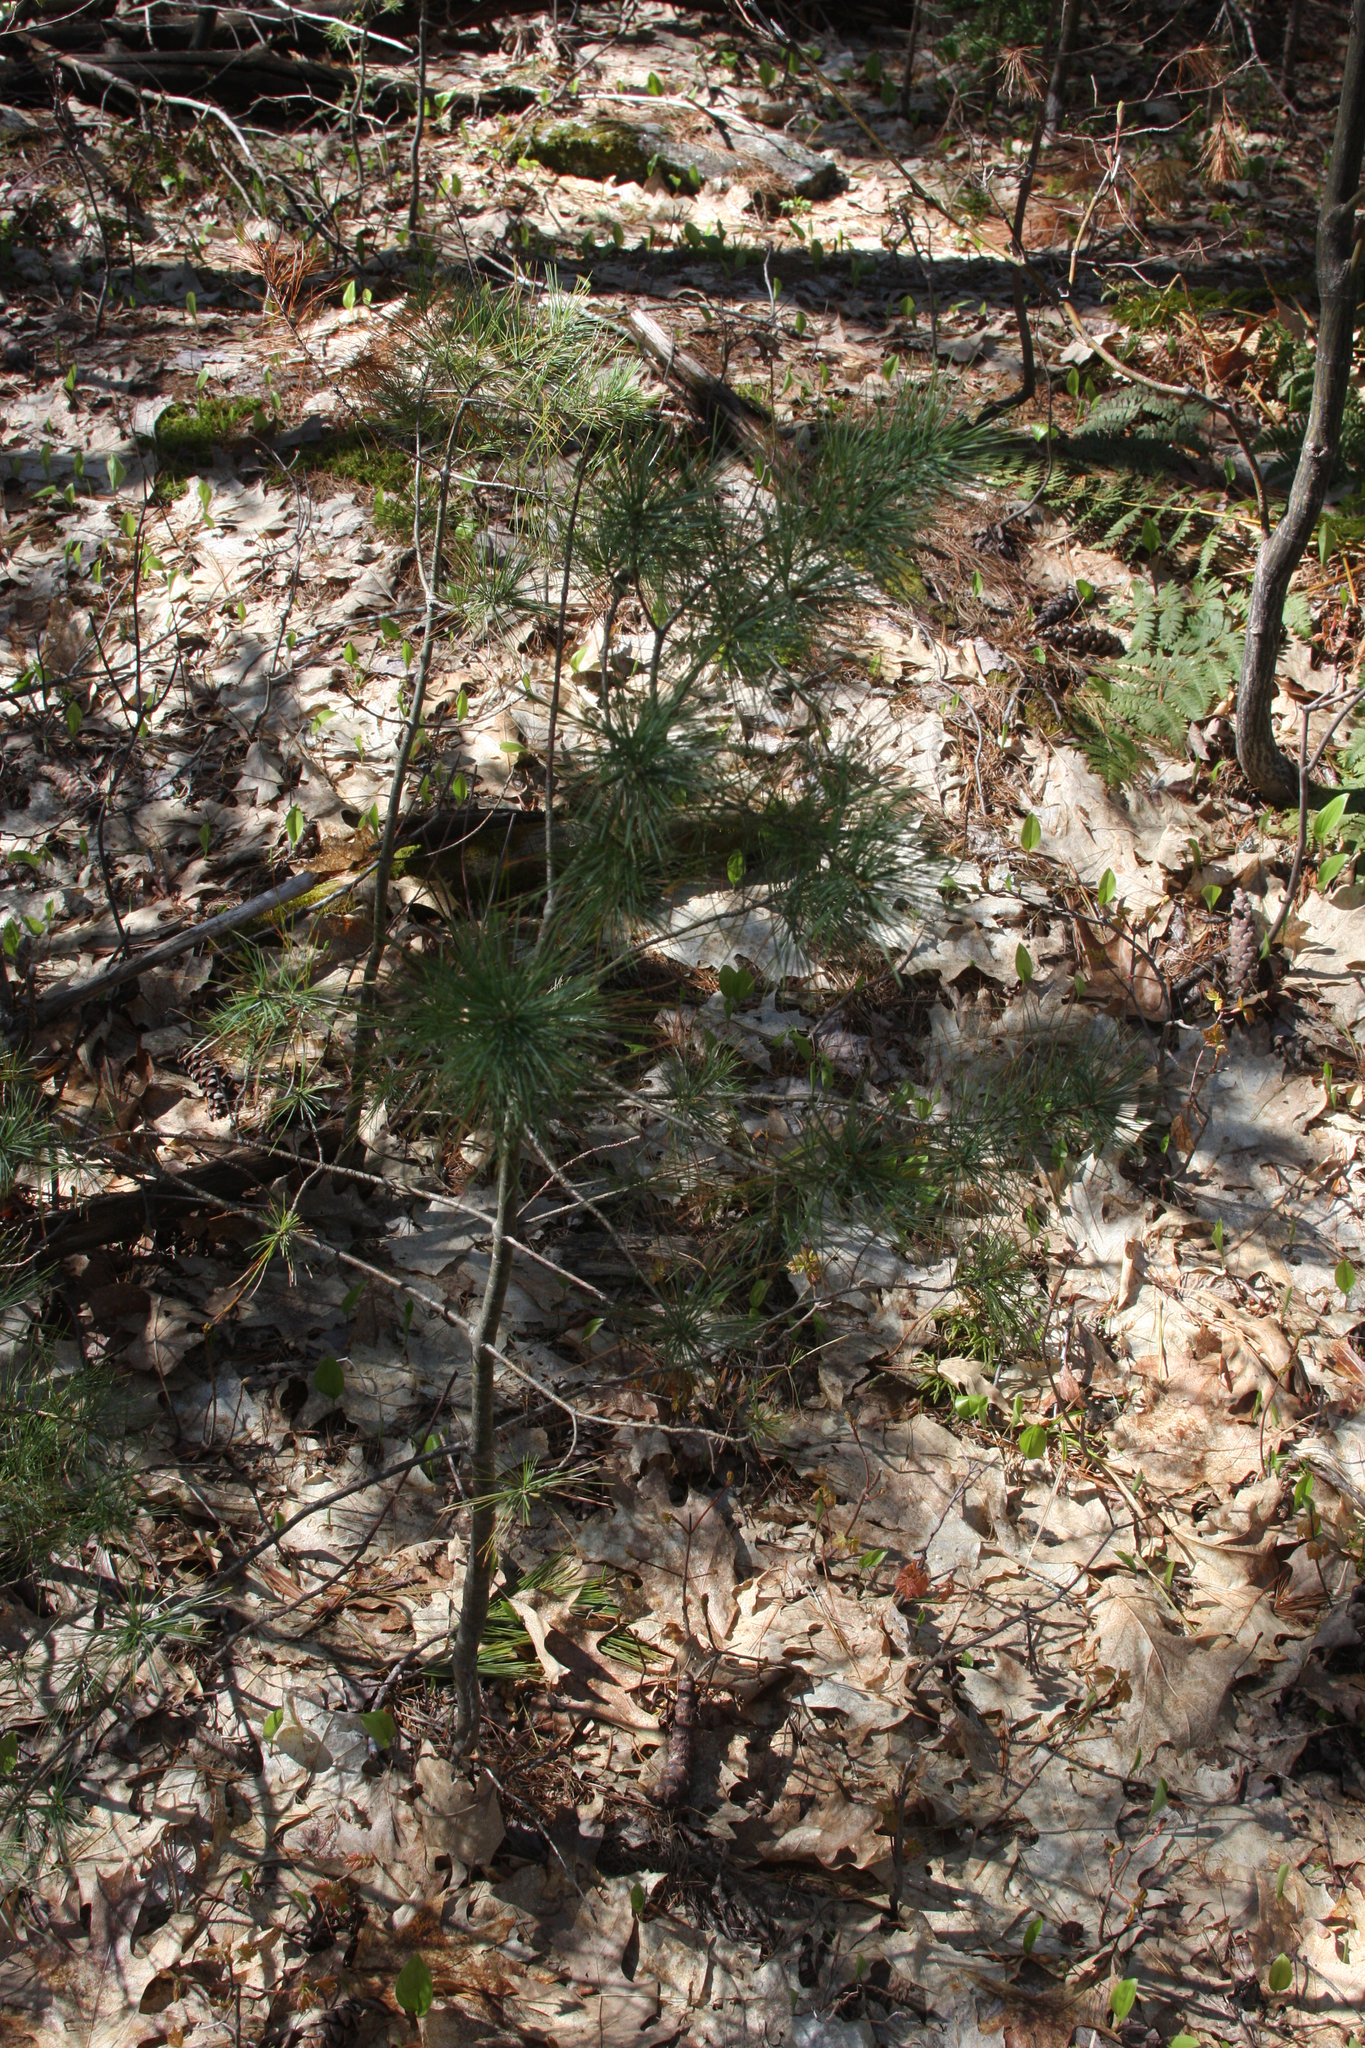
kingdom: Plantae
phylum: Tracheophyta
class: Pinopsida
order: Pinales
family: Pinaceae
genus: Pinus
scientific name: Pinus strobus
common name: Weymouth pine
